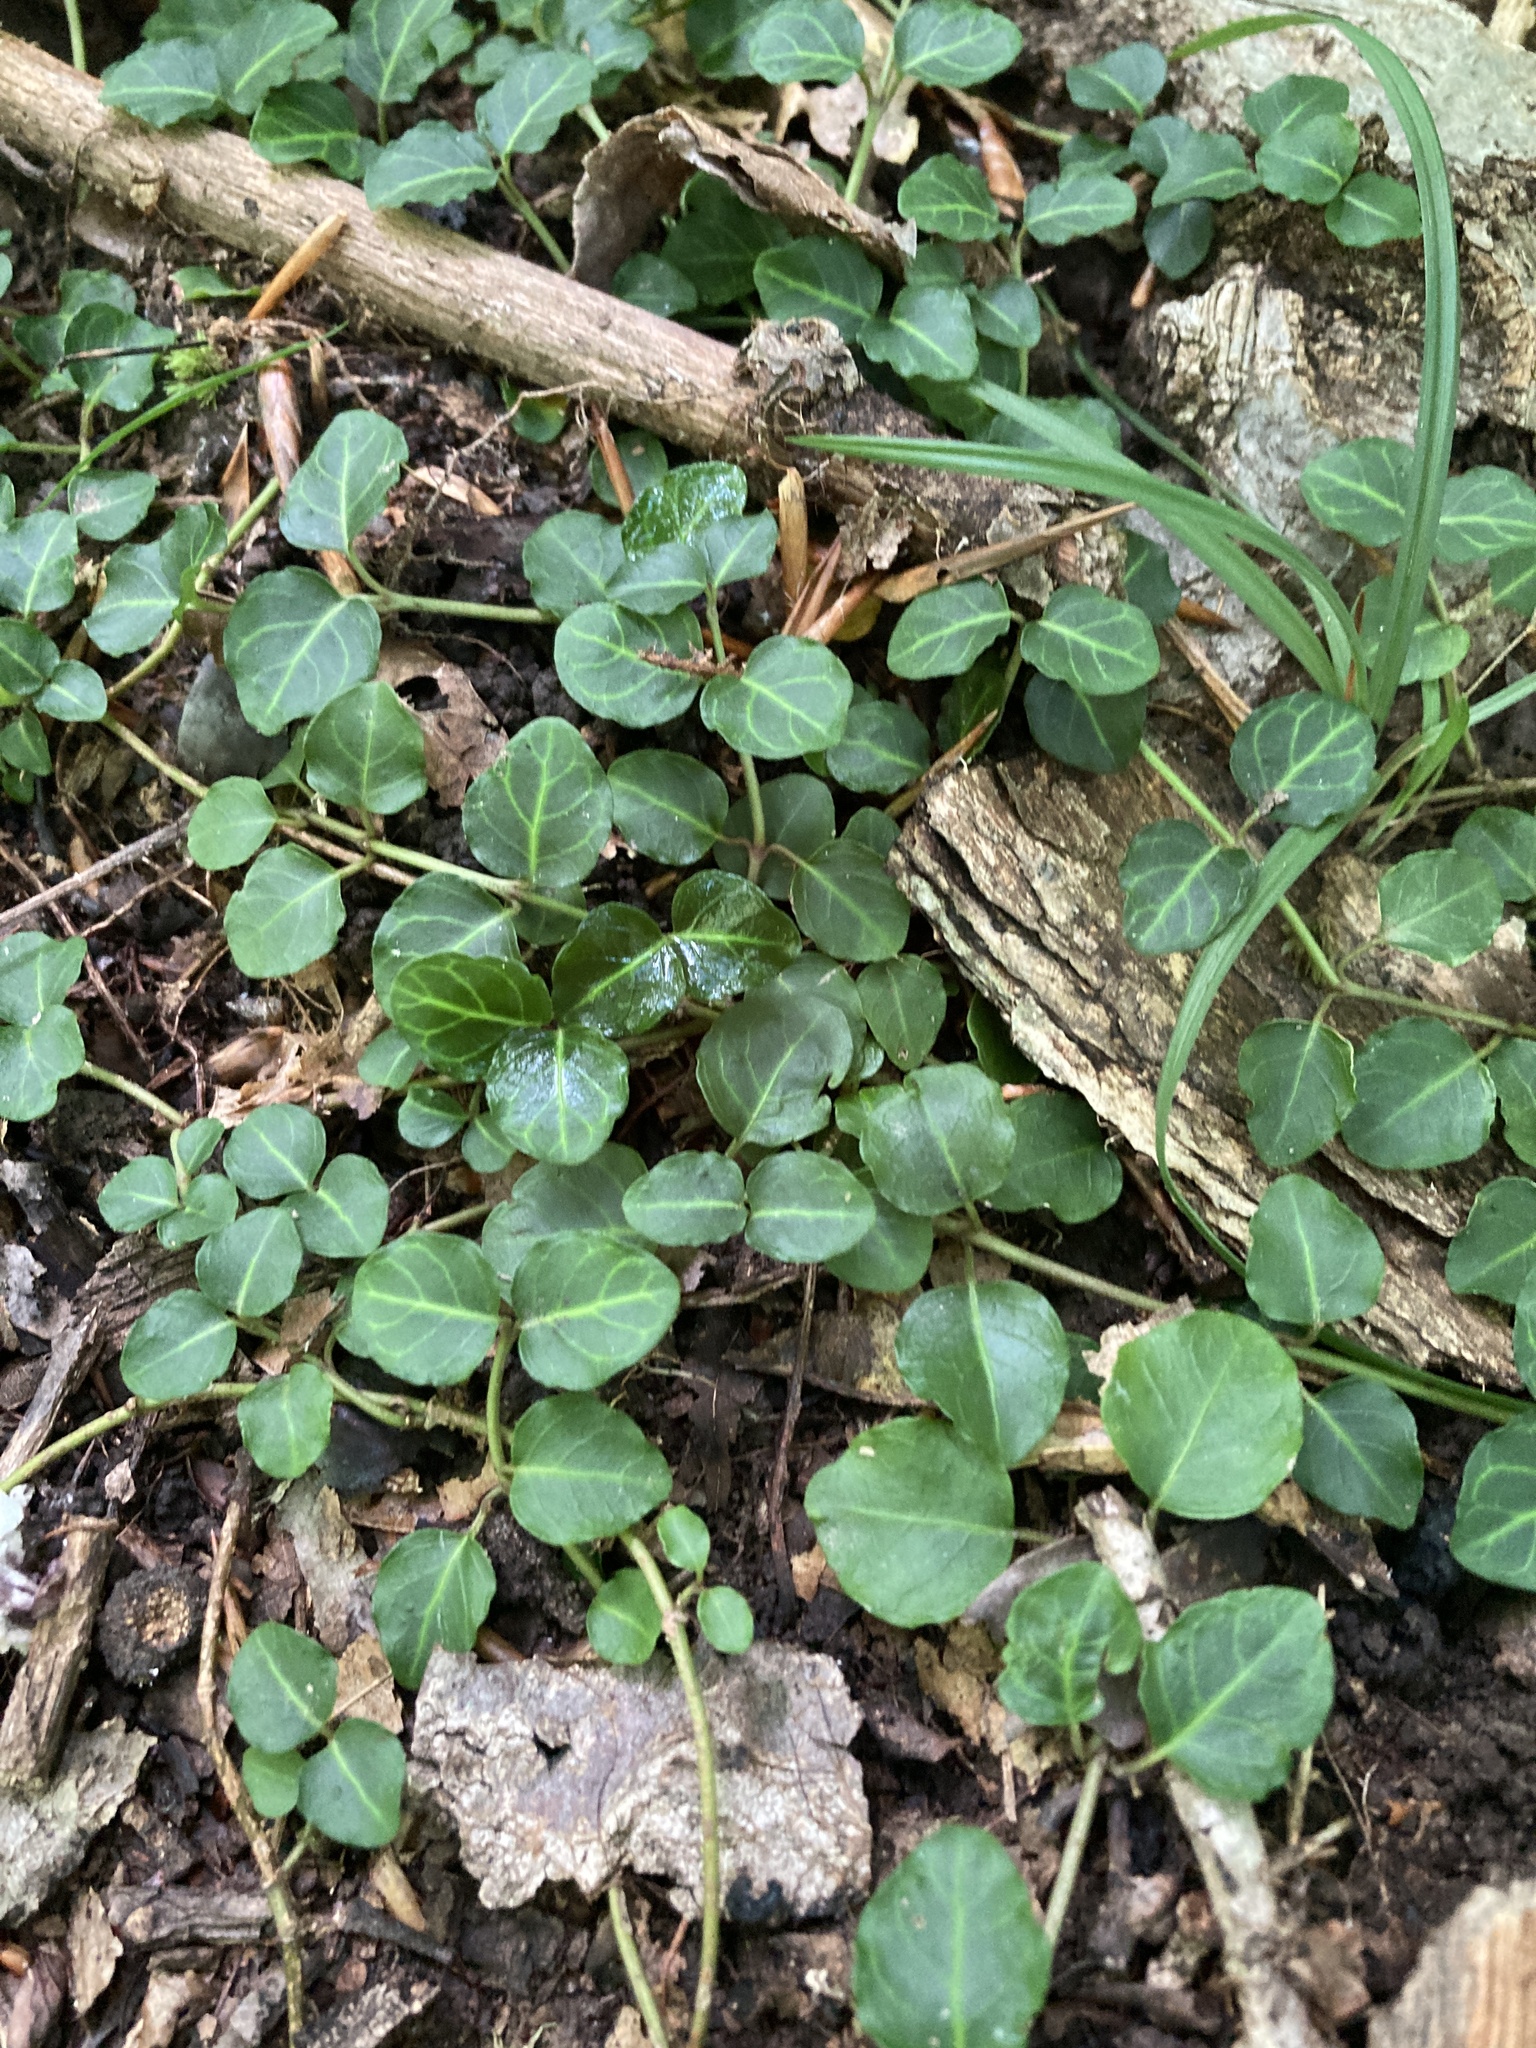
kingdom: Plantae
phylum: Tracheophyta
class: Magnoliopsida
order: Gentianales
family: Rubiaceae
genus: Mitchella
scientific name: Mitchella repens
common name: Partridge-berry
